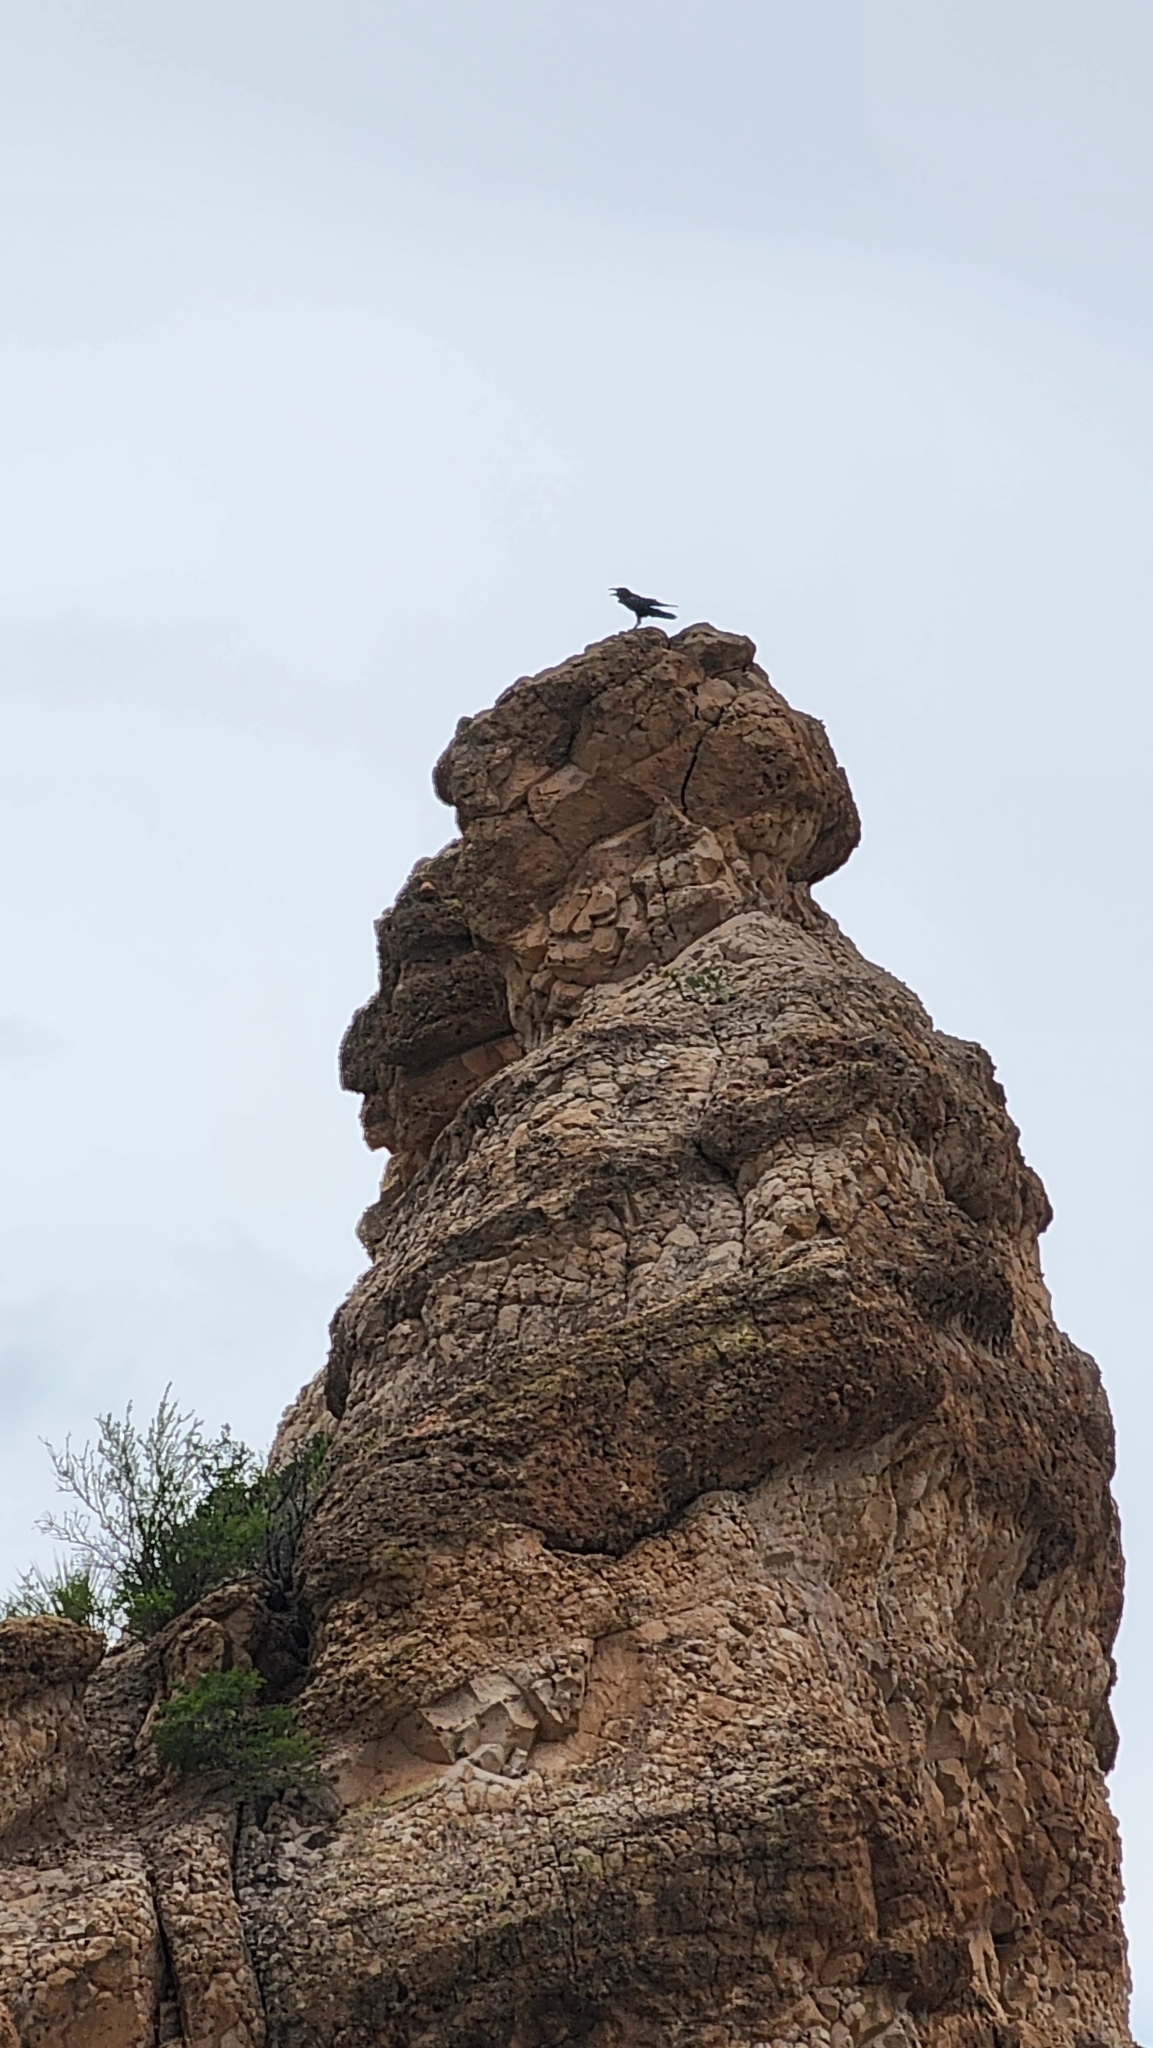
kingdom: Animalia
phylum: Chordata
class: Aves
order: Passeriformes
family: Corvidae
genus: Corvus
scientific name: Corvus corax
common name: Common raven
